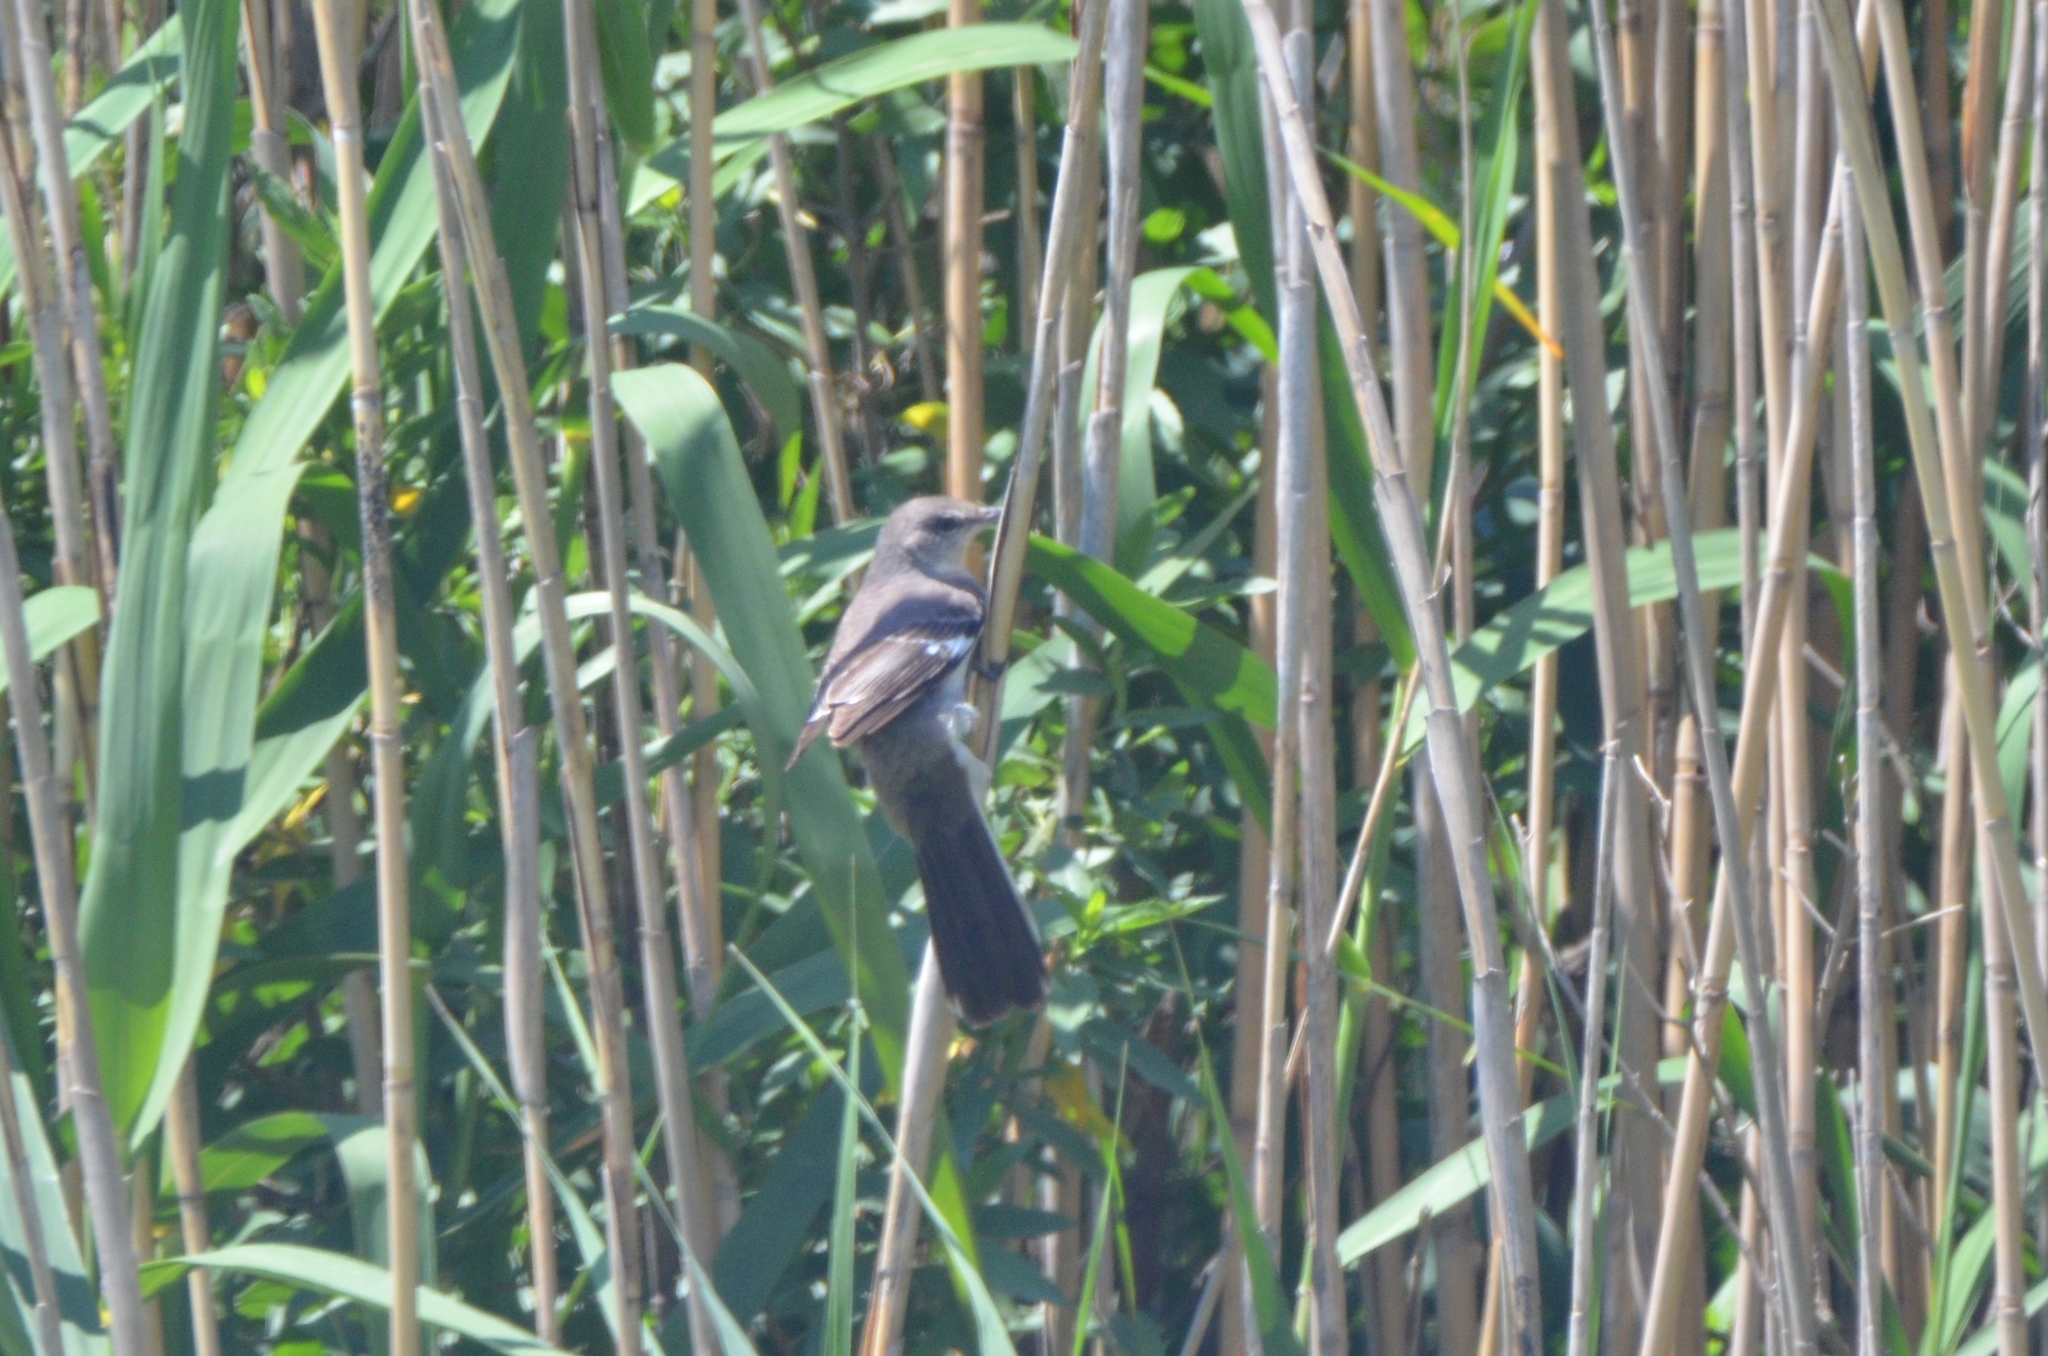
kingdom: Animalia
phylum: Chordata
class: Aves
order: Passeriformes
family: Mimidae
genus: Mimus
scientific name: Mimus polyglottos
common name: Northern mockingbird
